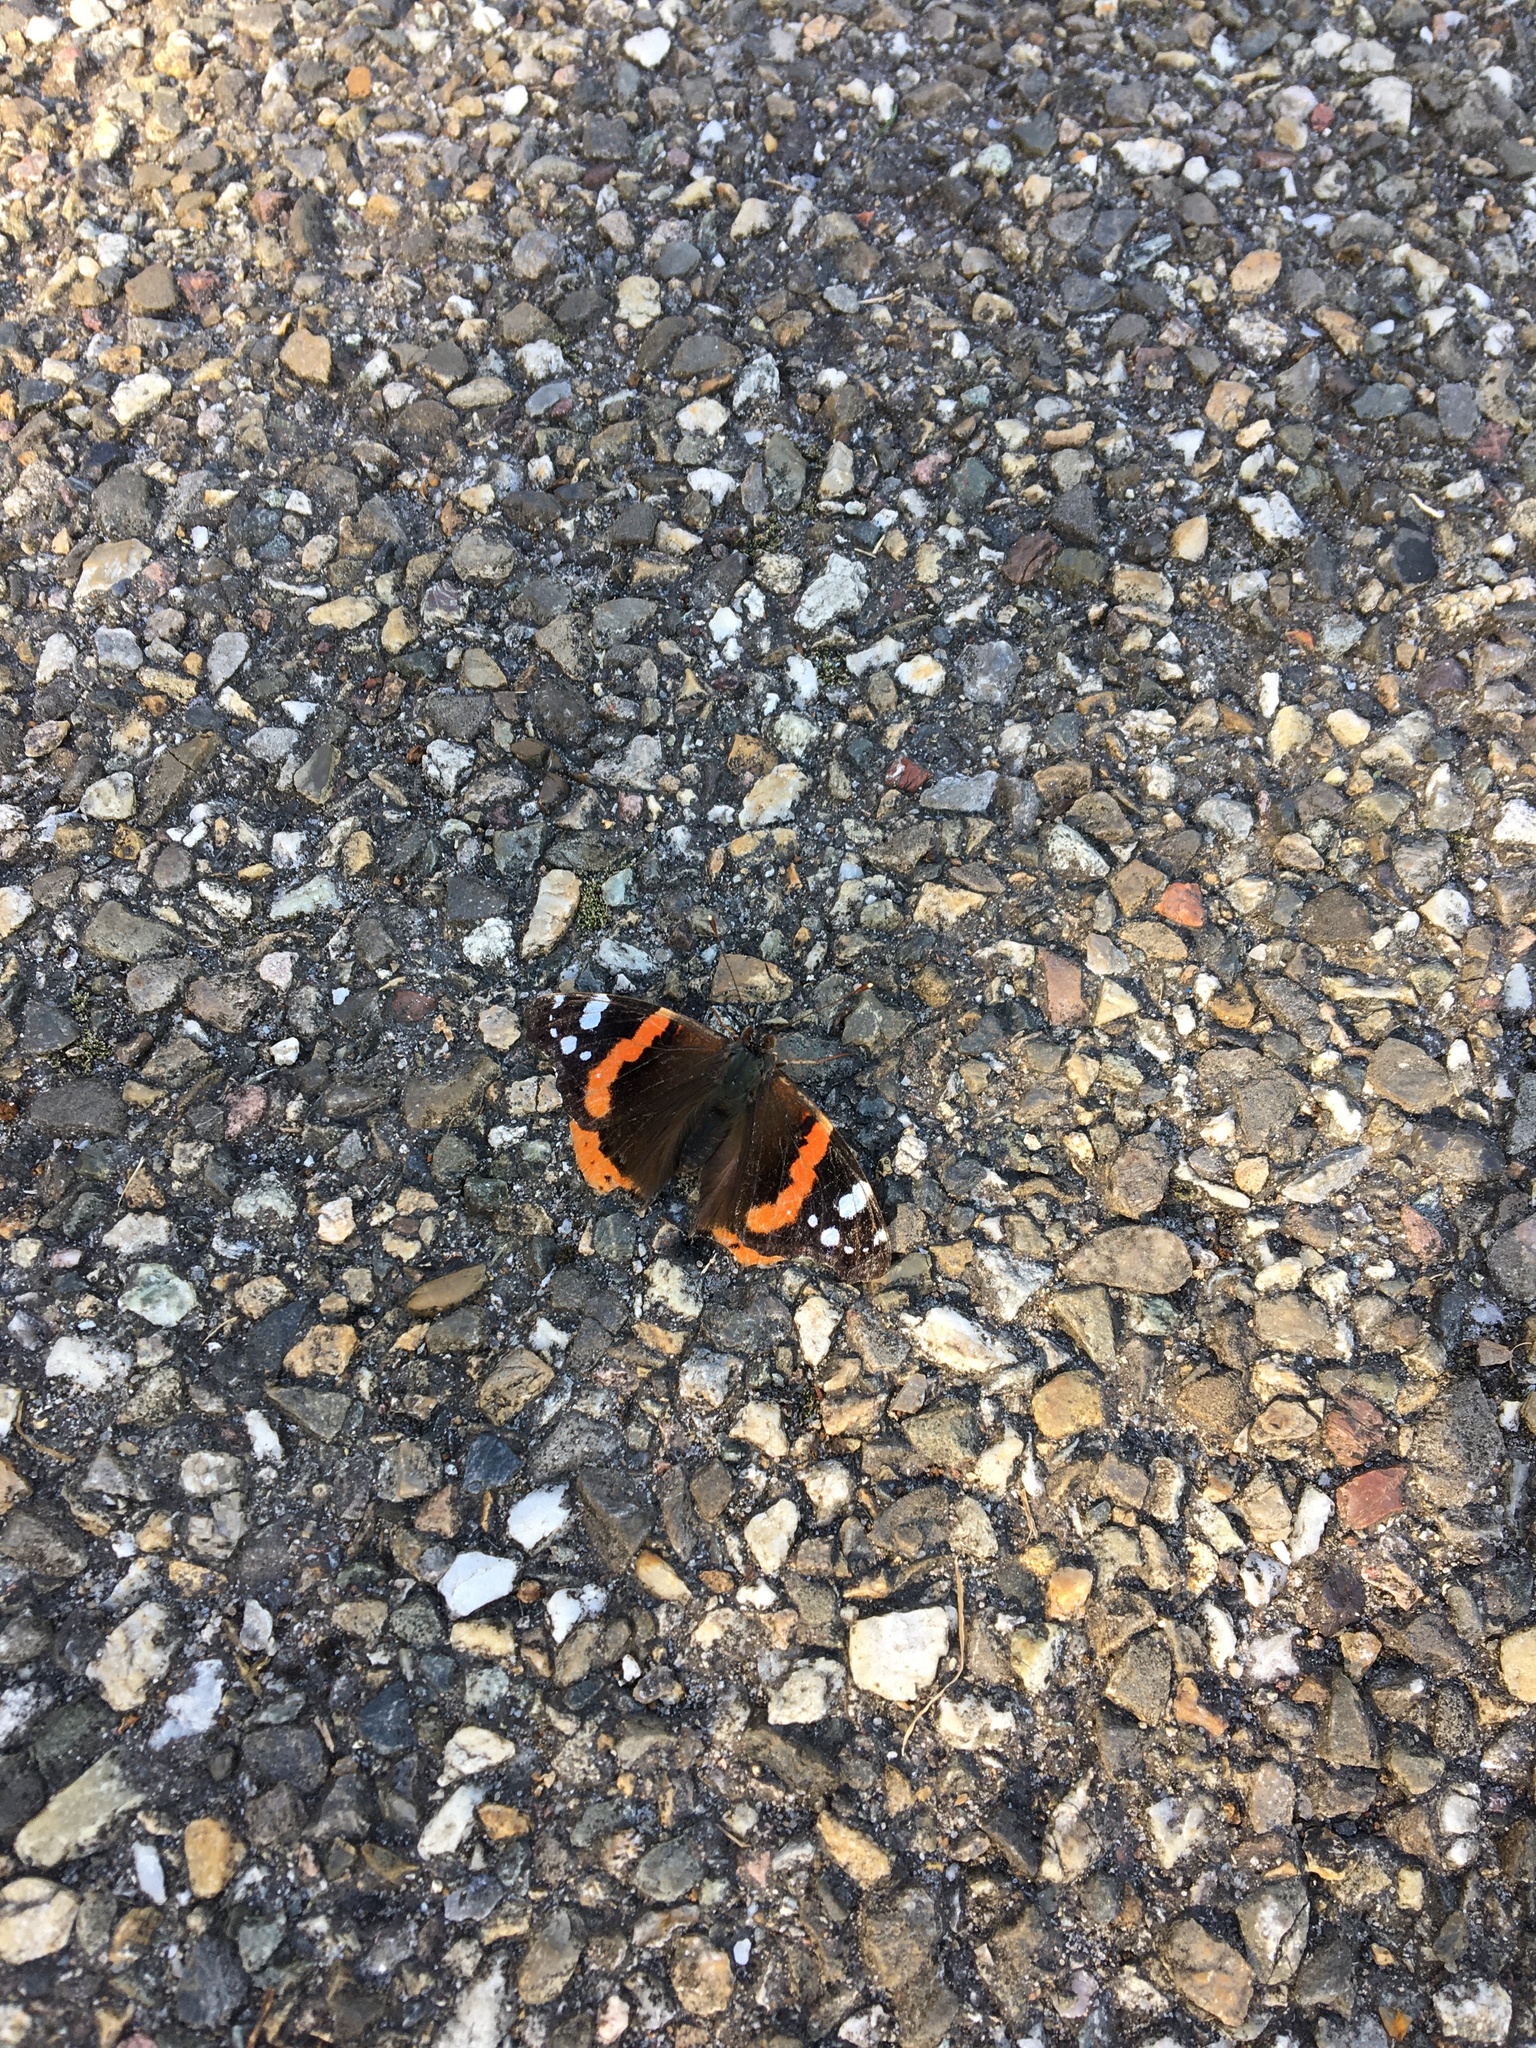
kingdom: Animalia
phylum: Arthropoda
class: Insecta
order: Lepidoptera
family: Nymphalidae
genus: Vanessa
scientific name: Vanessa atalanta
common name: Red admiral
